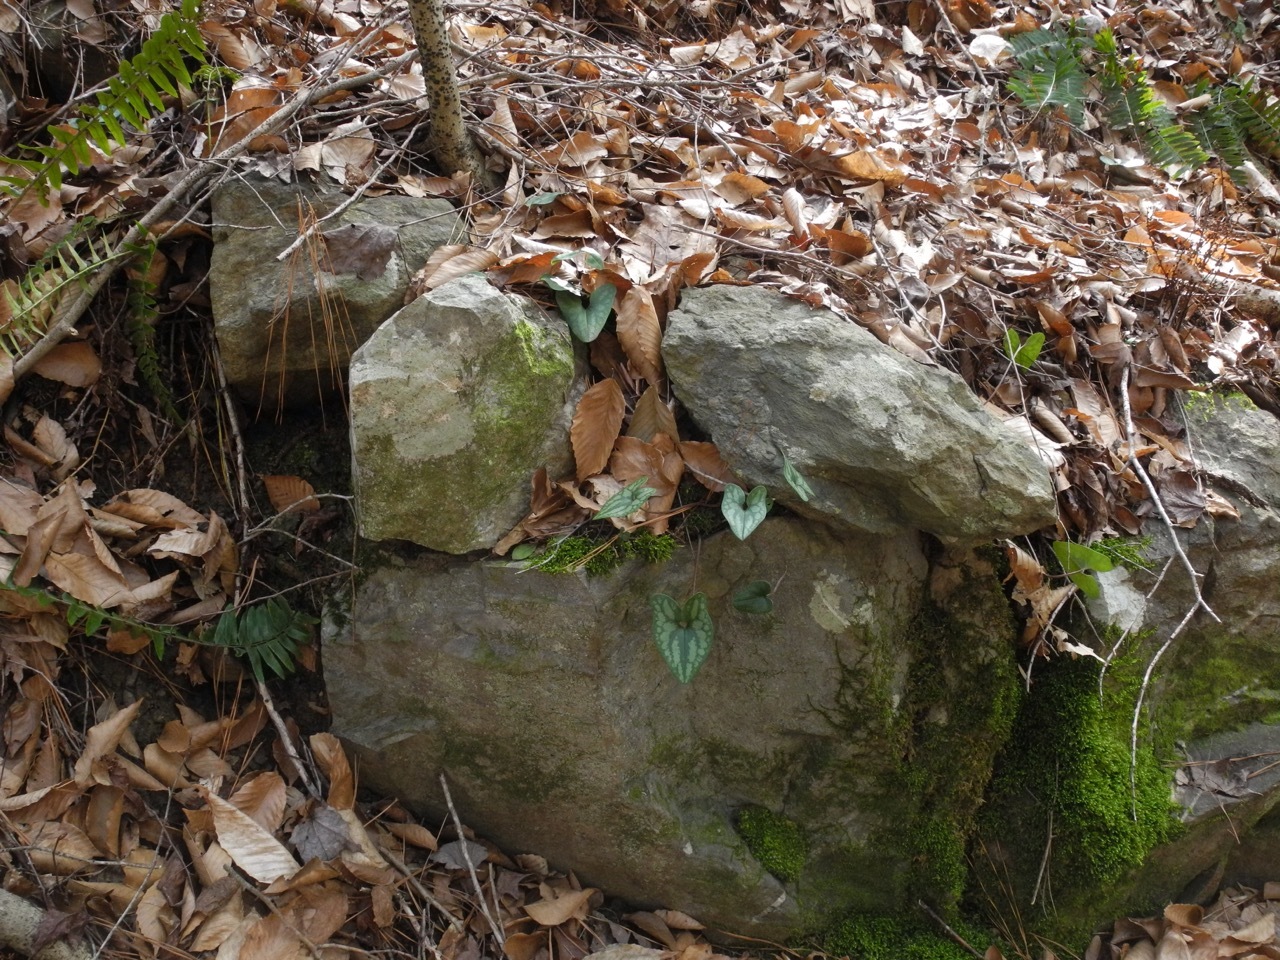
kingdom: Plantae
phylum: Tracheophyta
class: Magnoliopsida
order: Piperales
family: Aristolochiaceae
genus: Hexastylis
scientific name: Hexastylis arifolia
